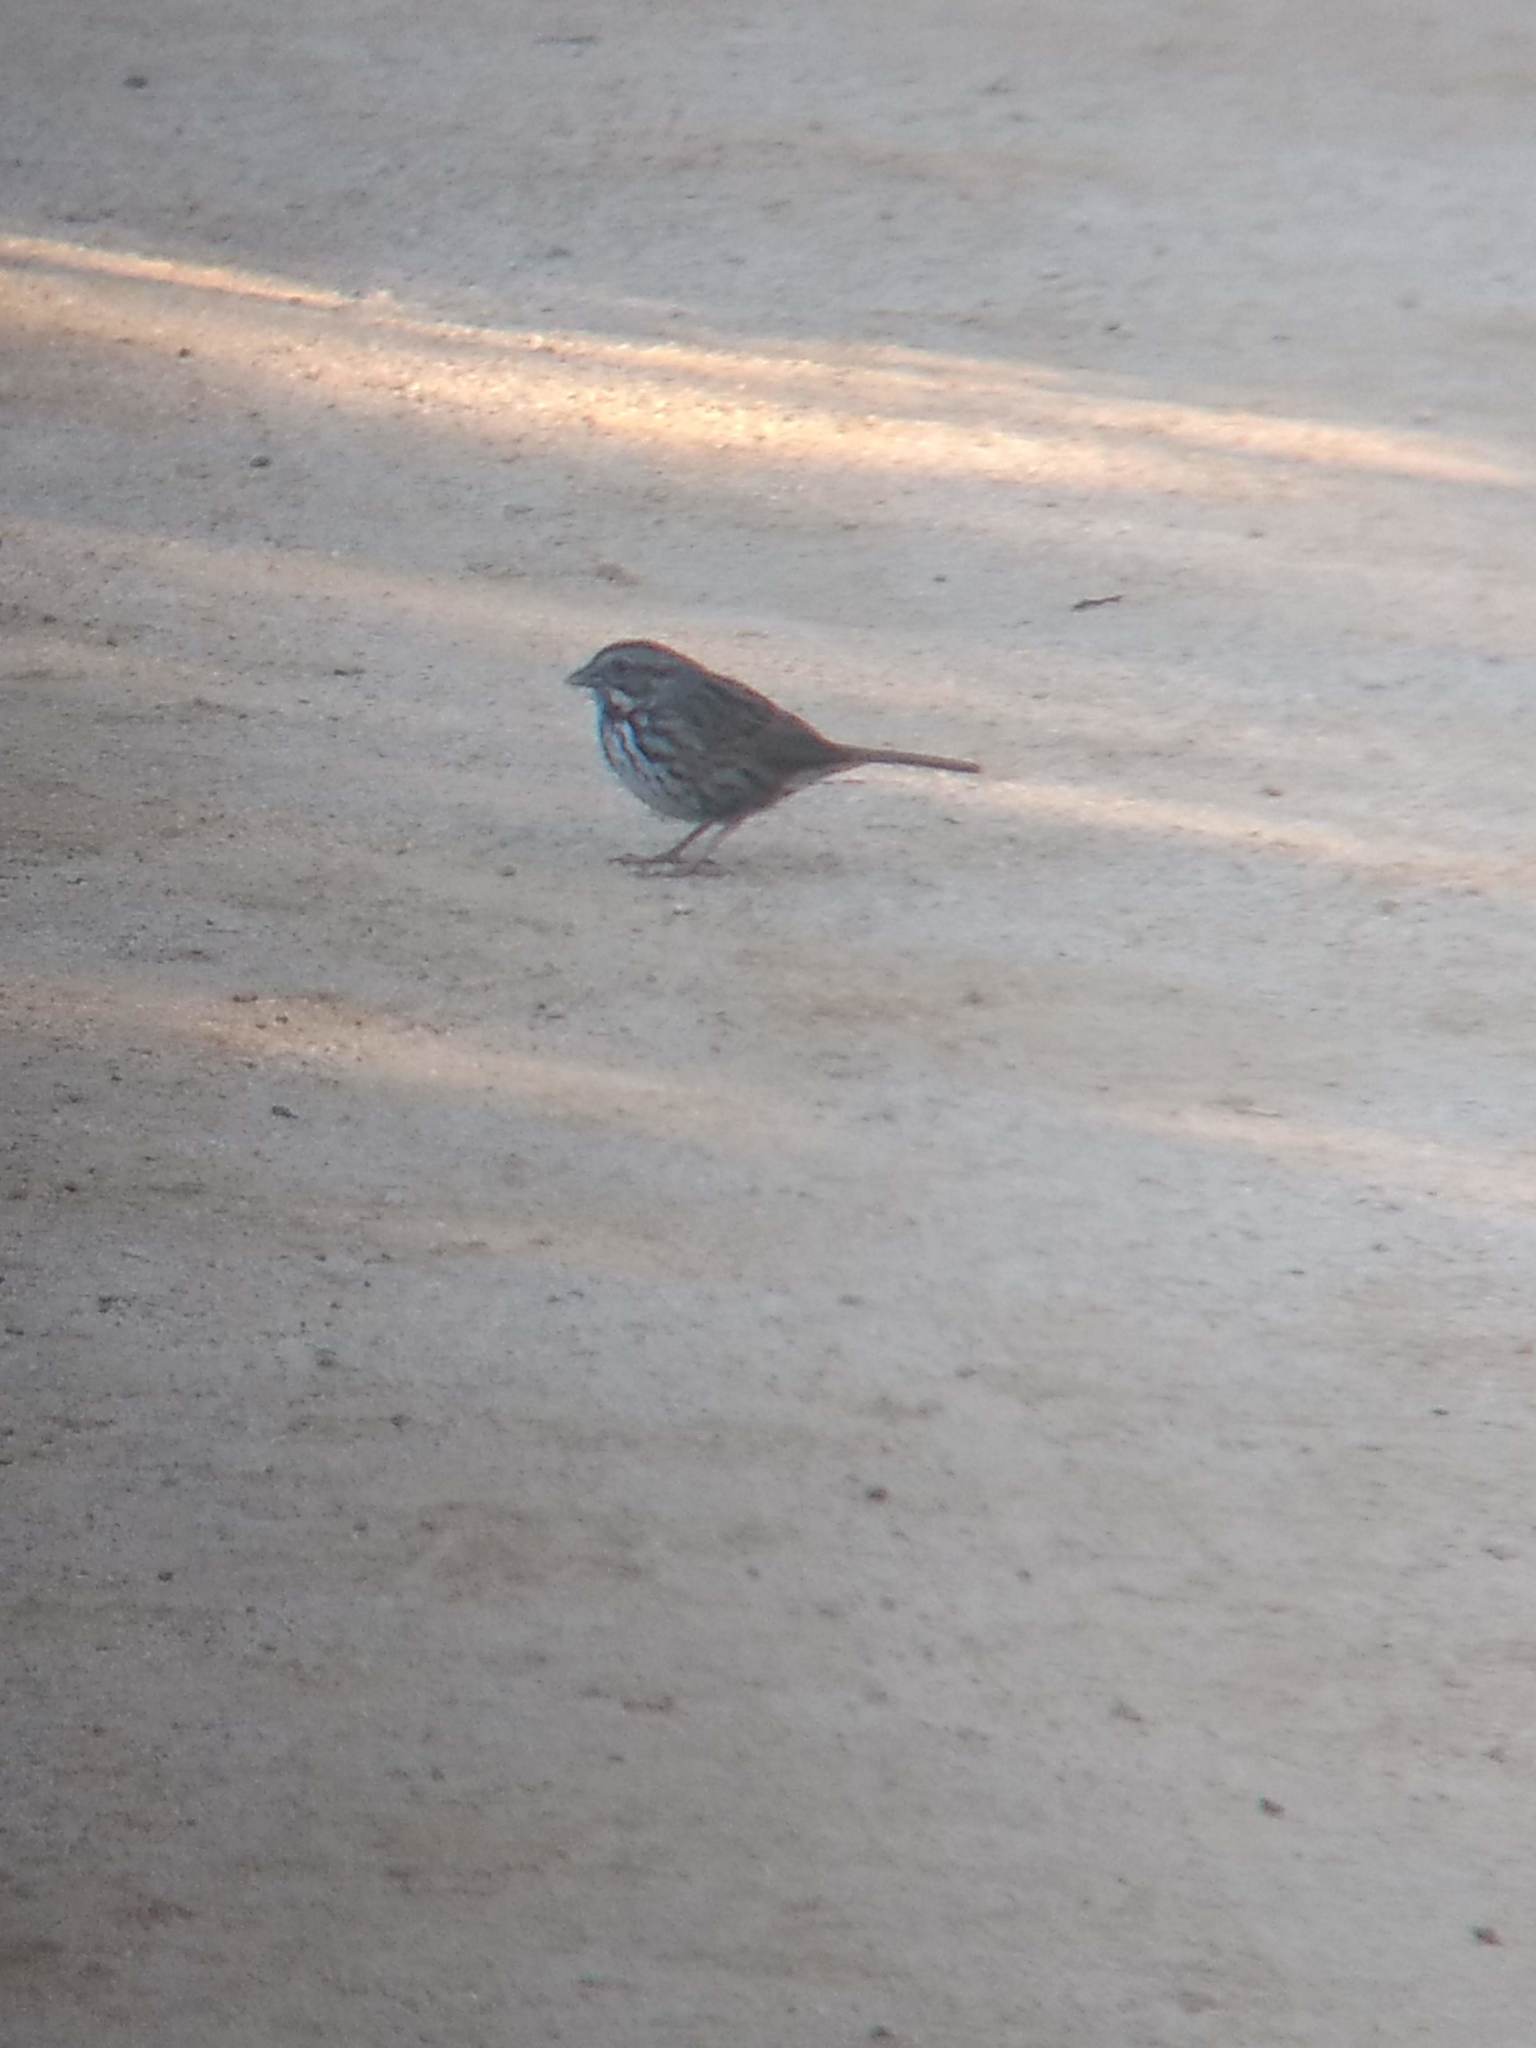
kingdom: Animalia
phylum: Chordata
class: Aves
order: Passeriformes
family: Passerellidae
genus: Melospiza
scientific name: Melospiza melodia
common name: Song sparrow
